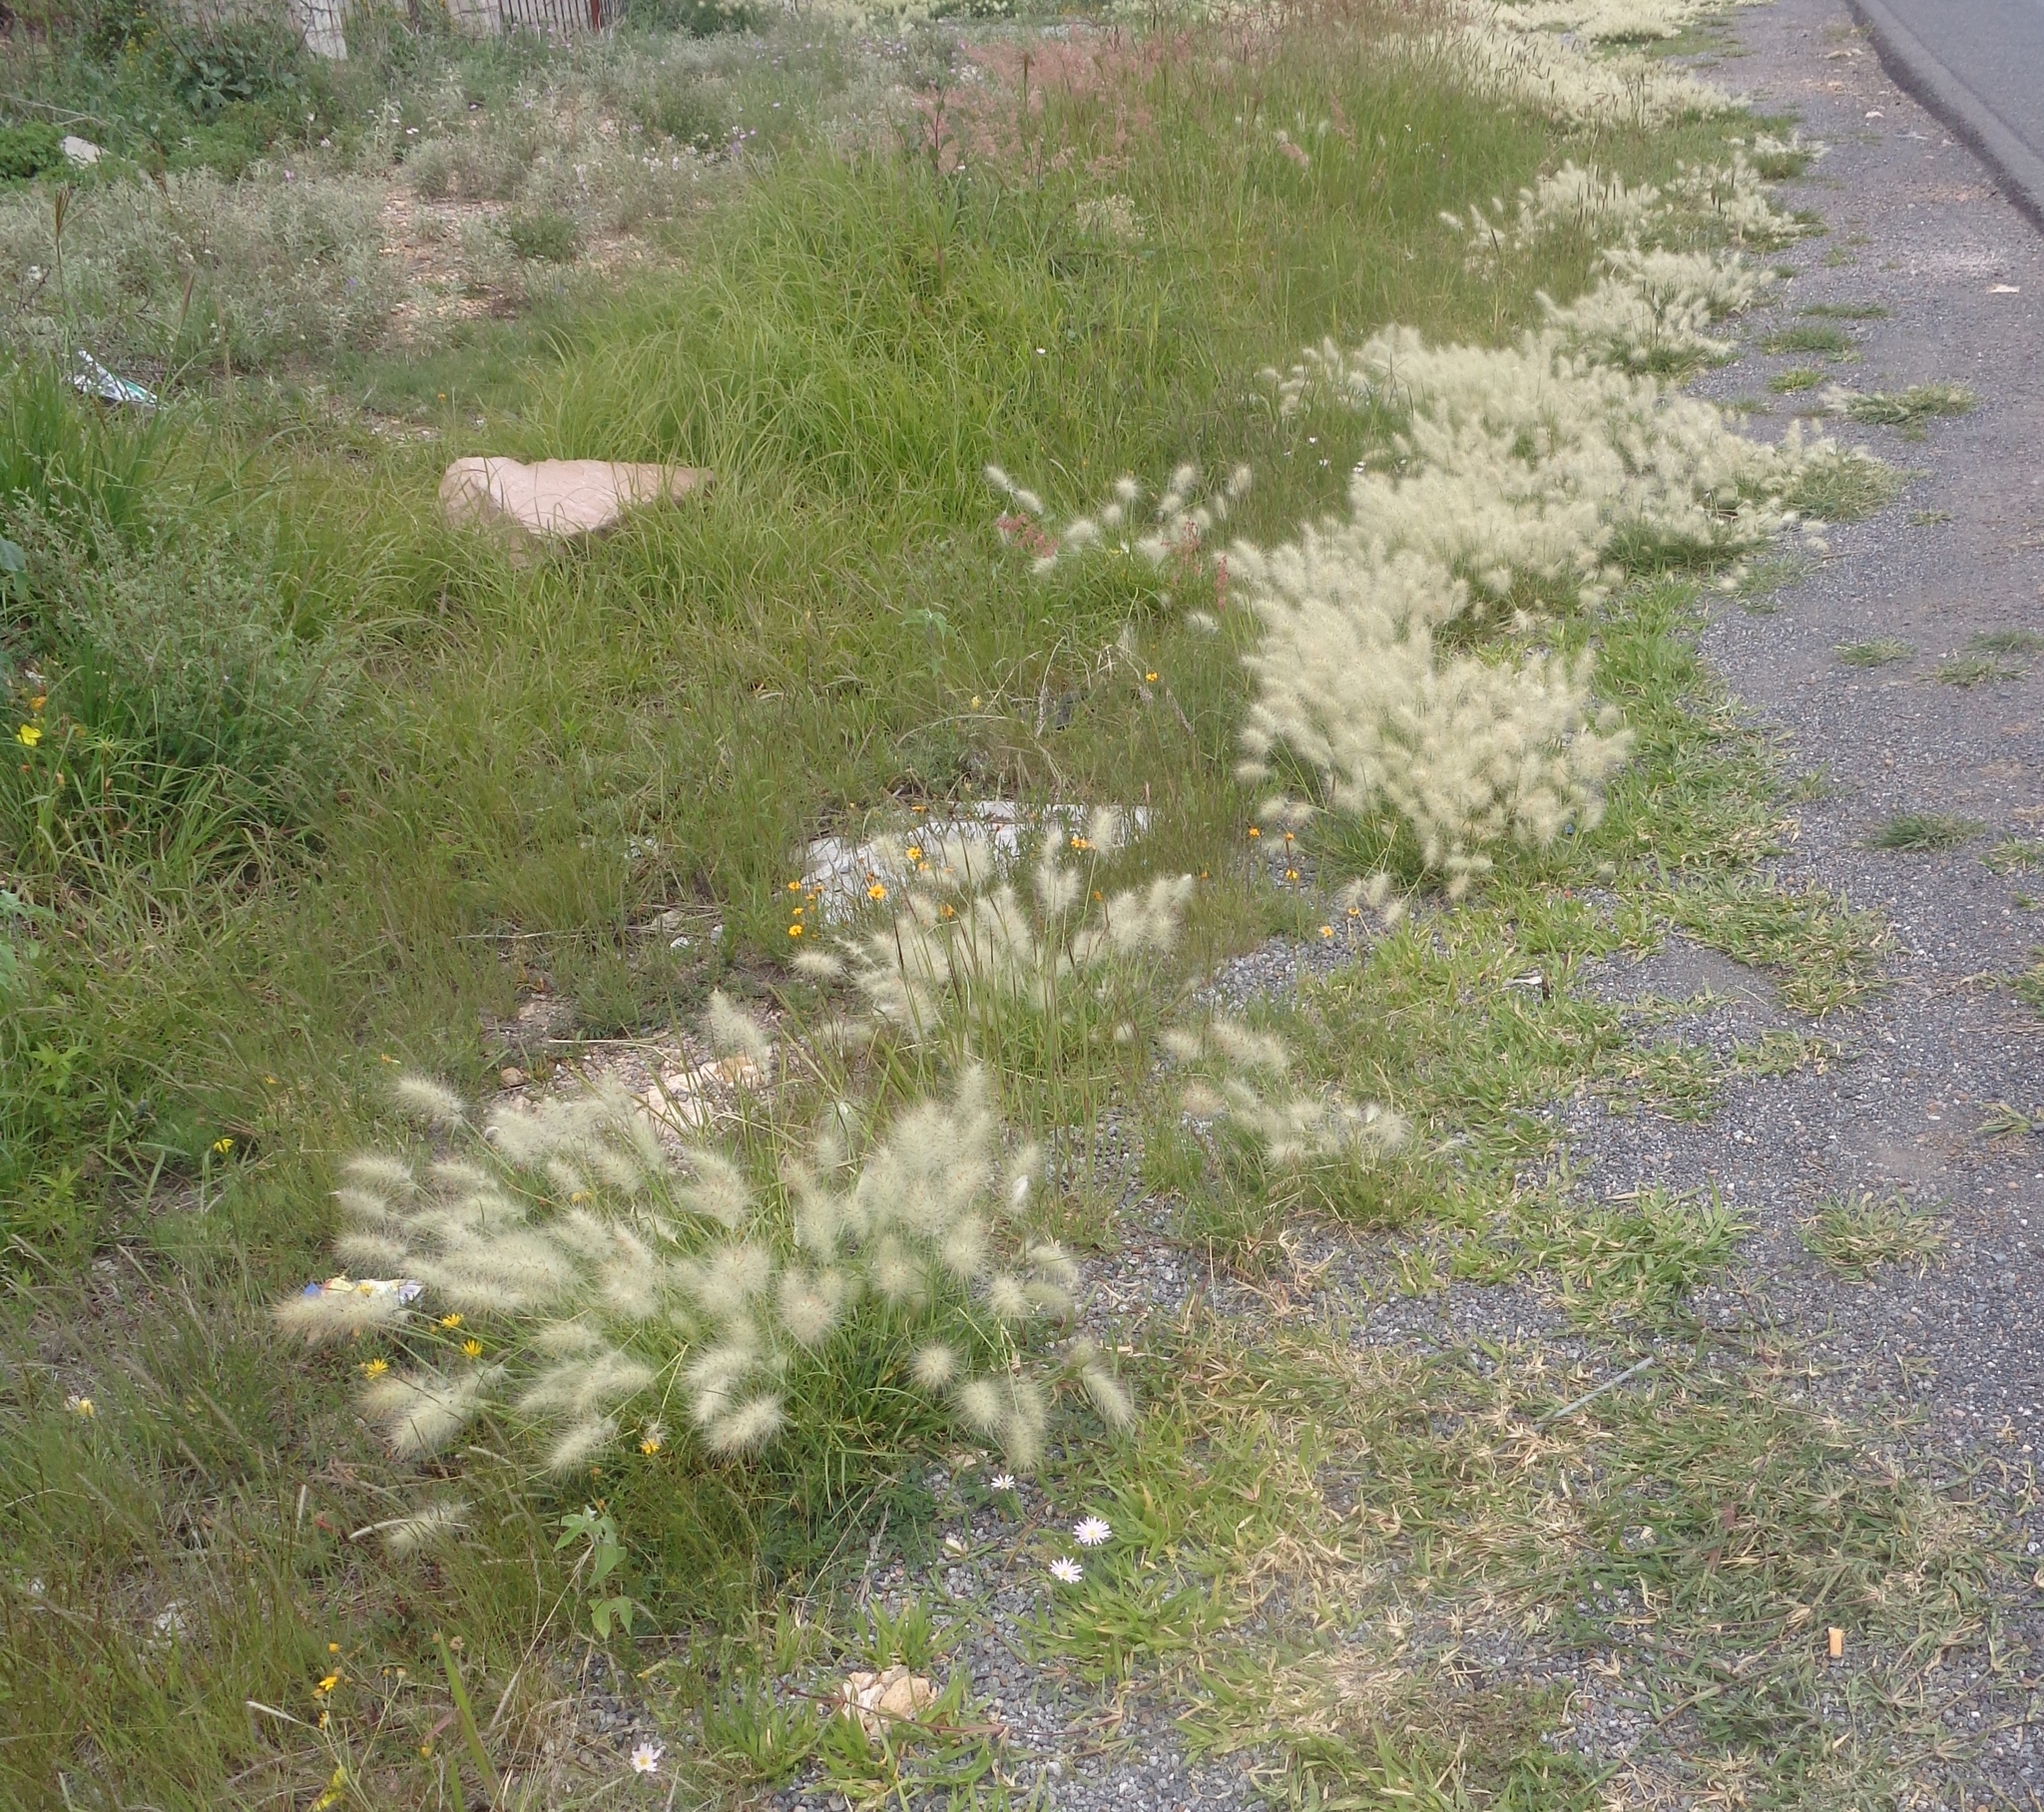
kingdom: Plantae
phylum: Tracheophyta
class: Liliopsida
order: Poales
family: Poaceae
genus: Cenchrus
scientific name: Cenchrus longisetus
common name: Feathertop
